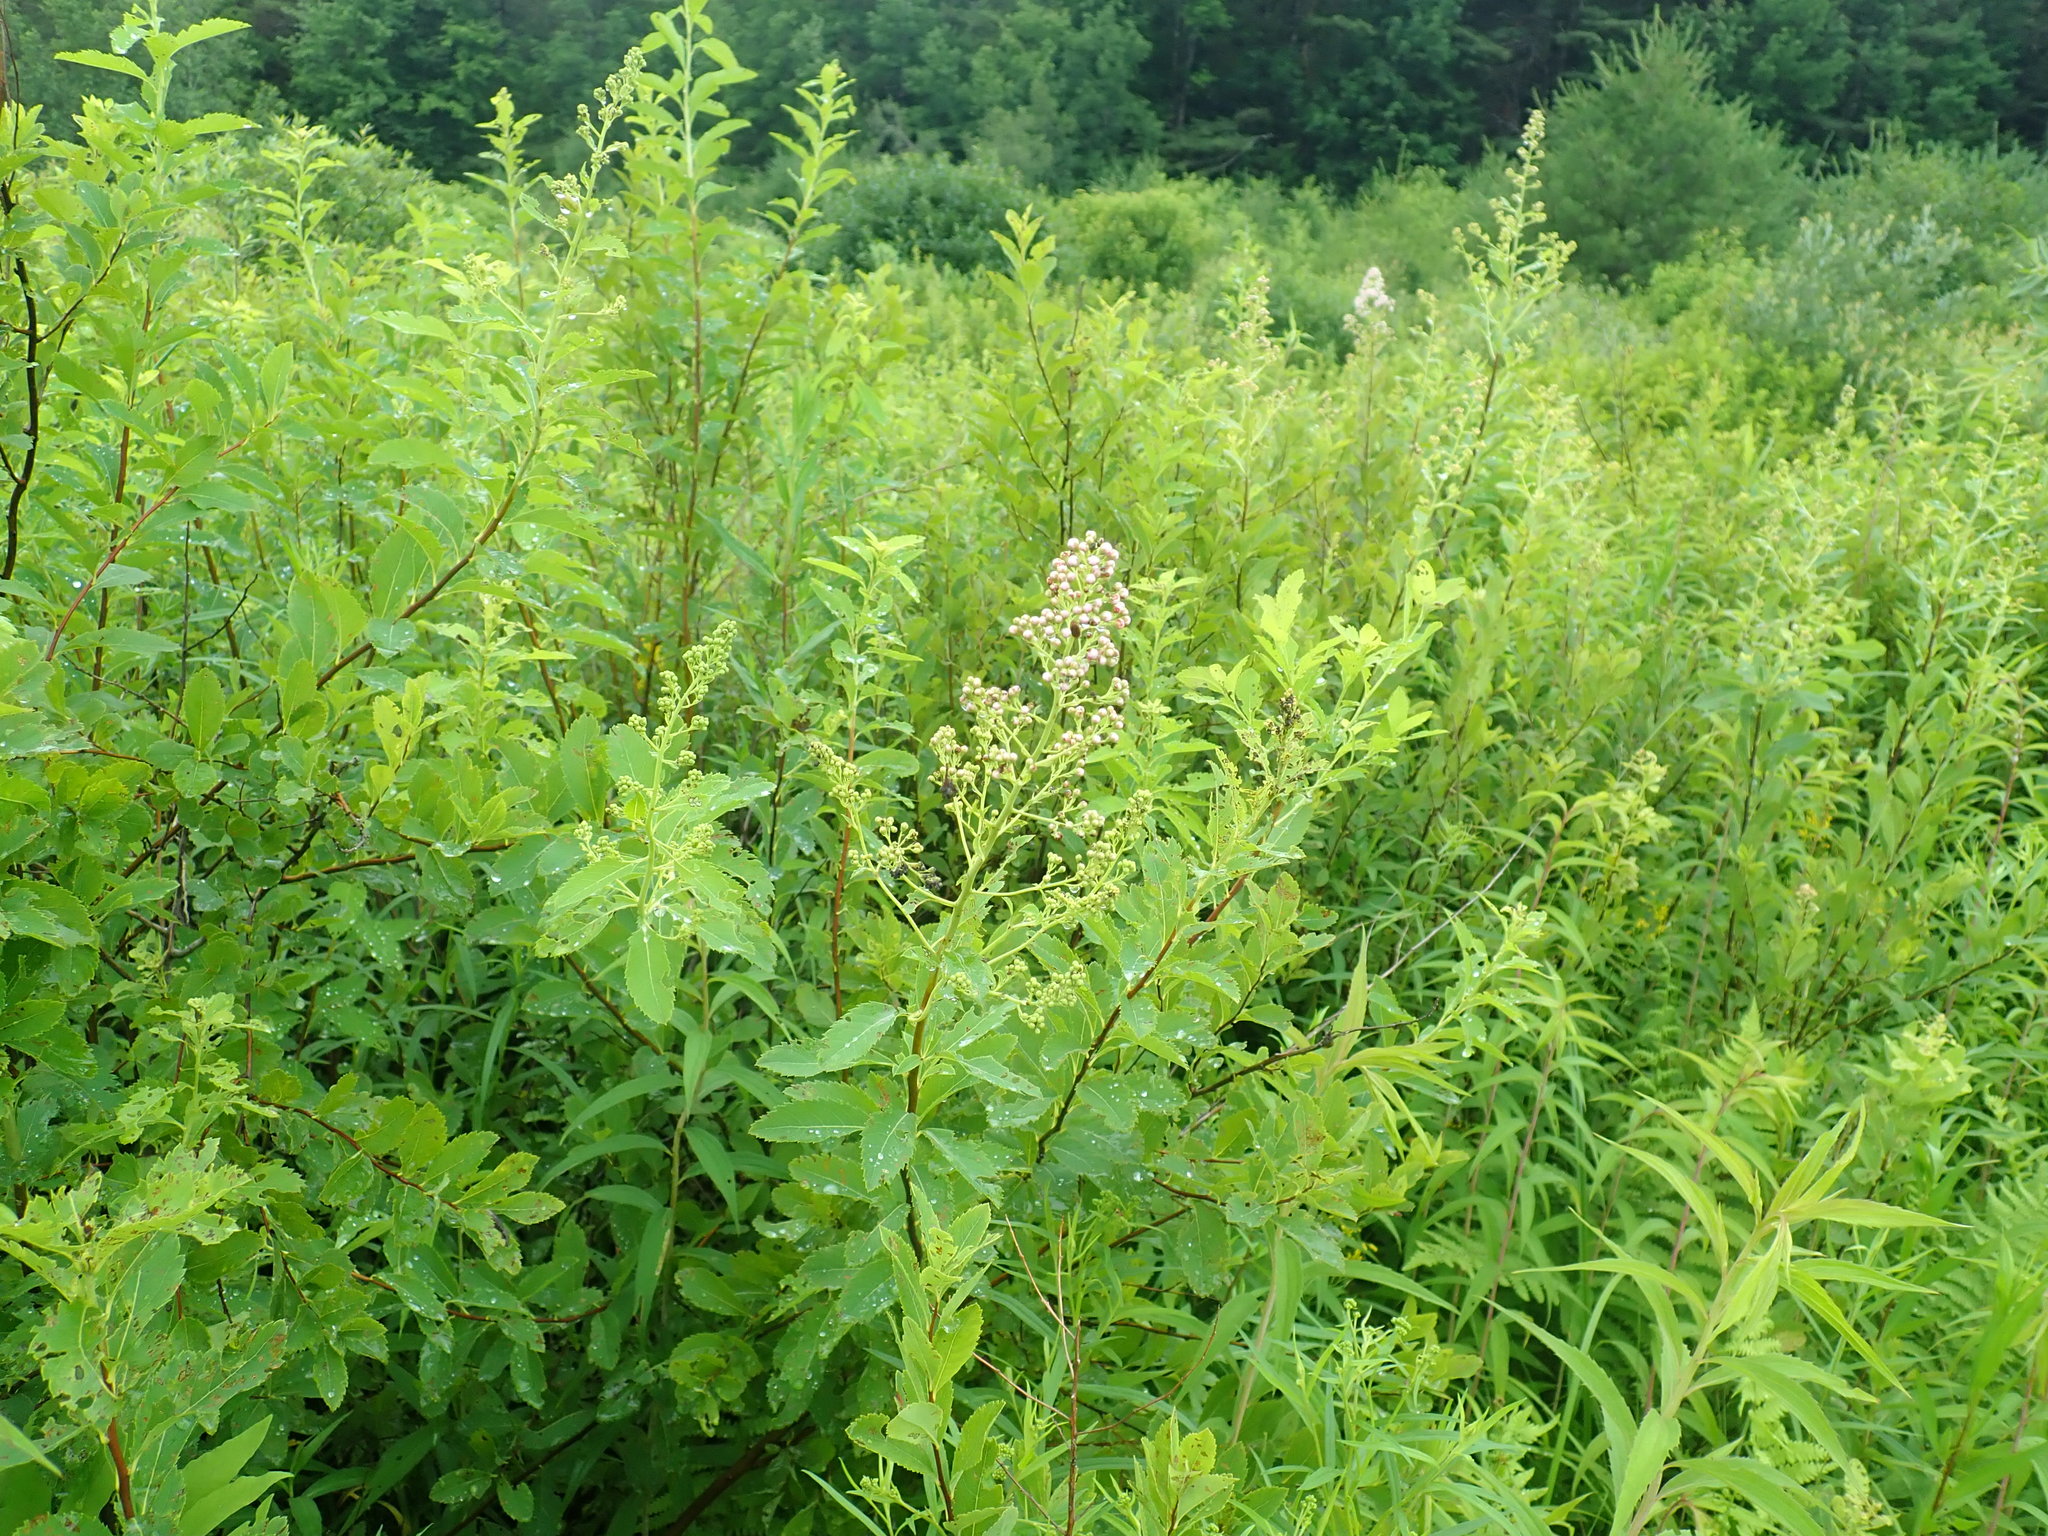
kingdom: Plantae
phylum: Tracheophyta
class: Magnoliopsida
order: Rosales
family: Rosaceae
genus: Spiraea
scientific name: Spiraea alba
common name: Pale bridewort
